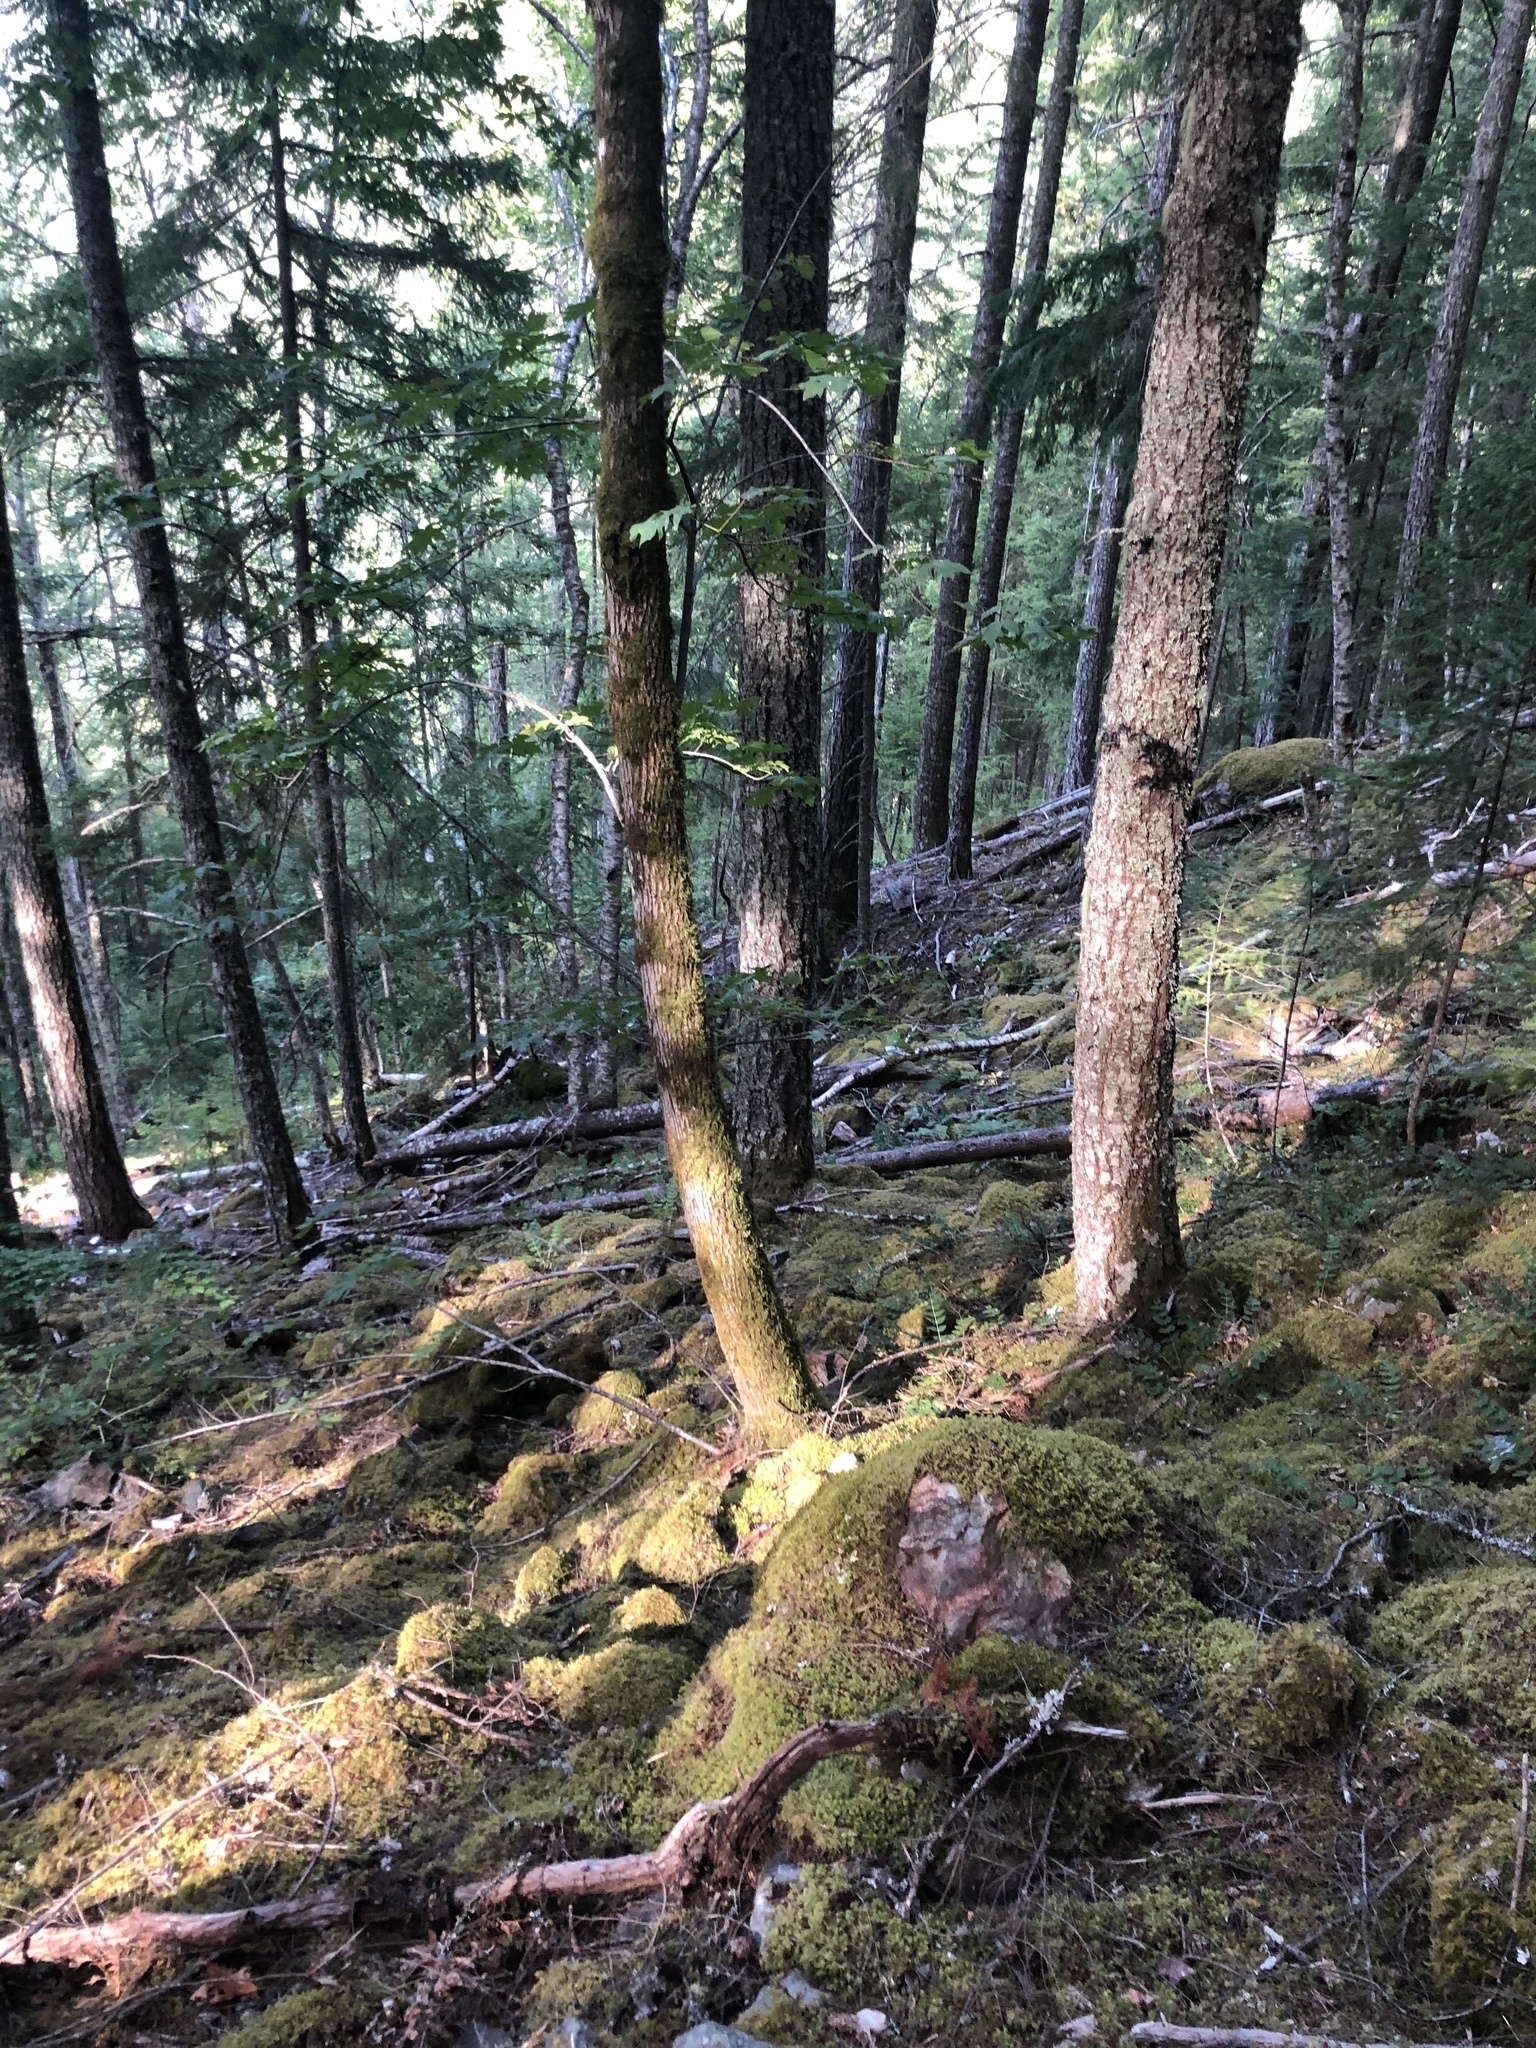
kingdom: Plantae
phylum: Tracheophyta
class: Magnoliopsida
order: Sapindales
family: Sapindaceae
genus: Acer
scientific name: Acer macrophyllum
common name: Oregon maple
